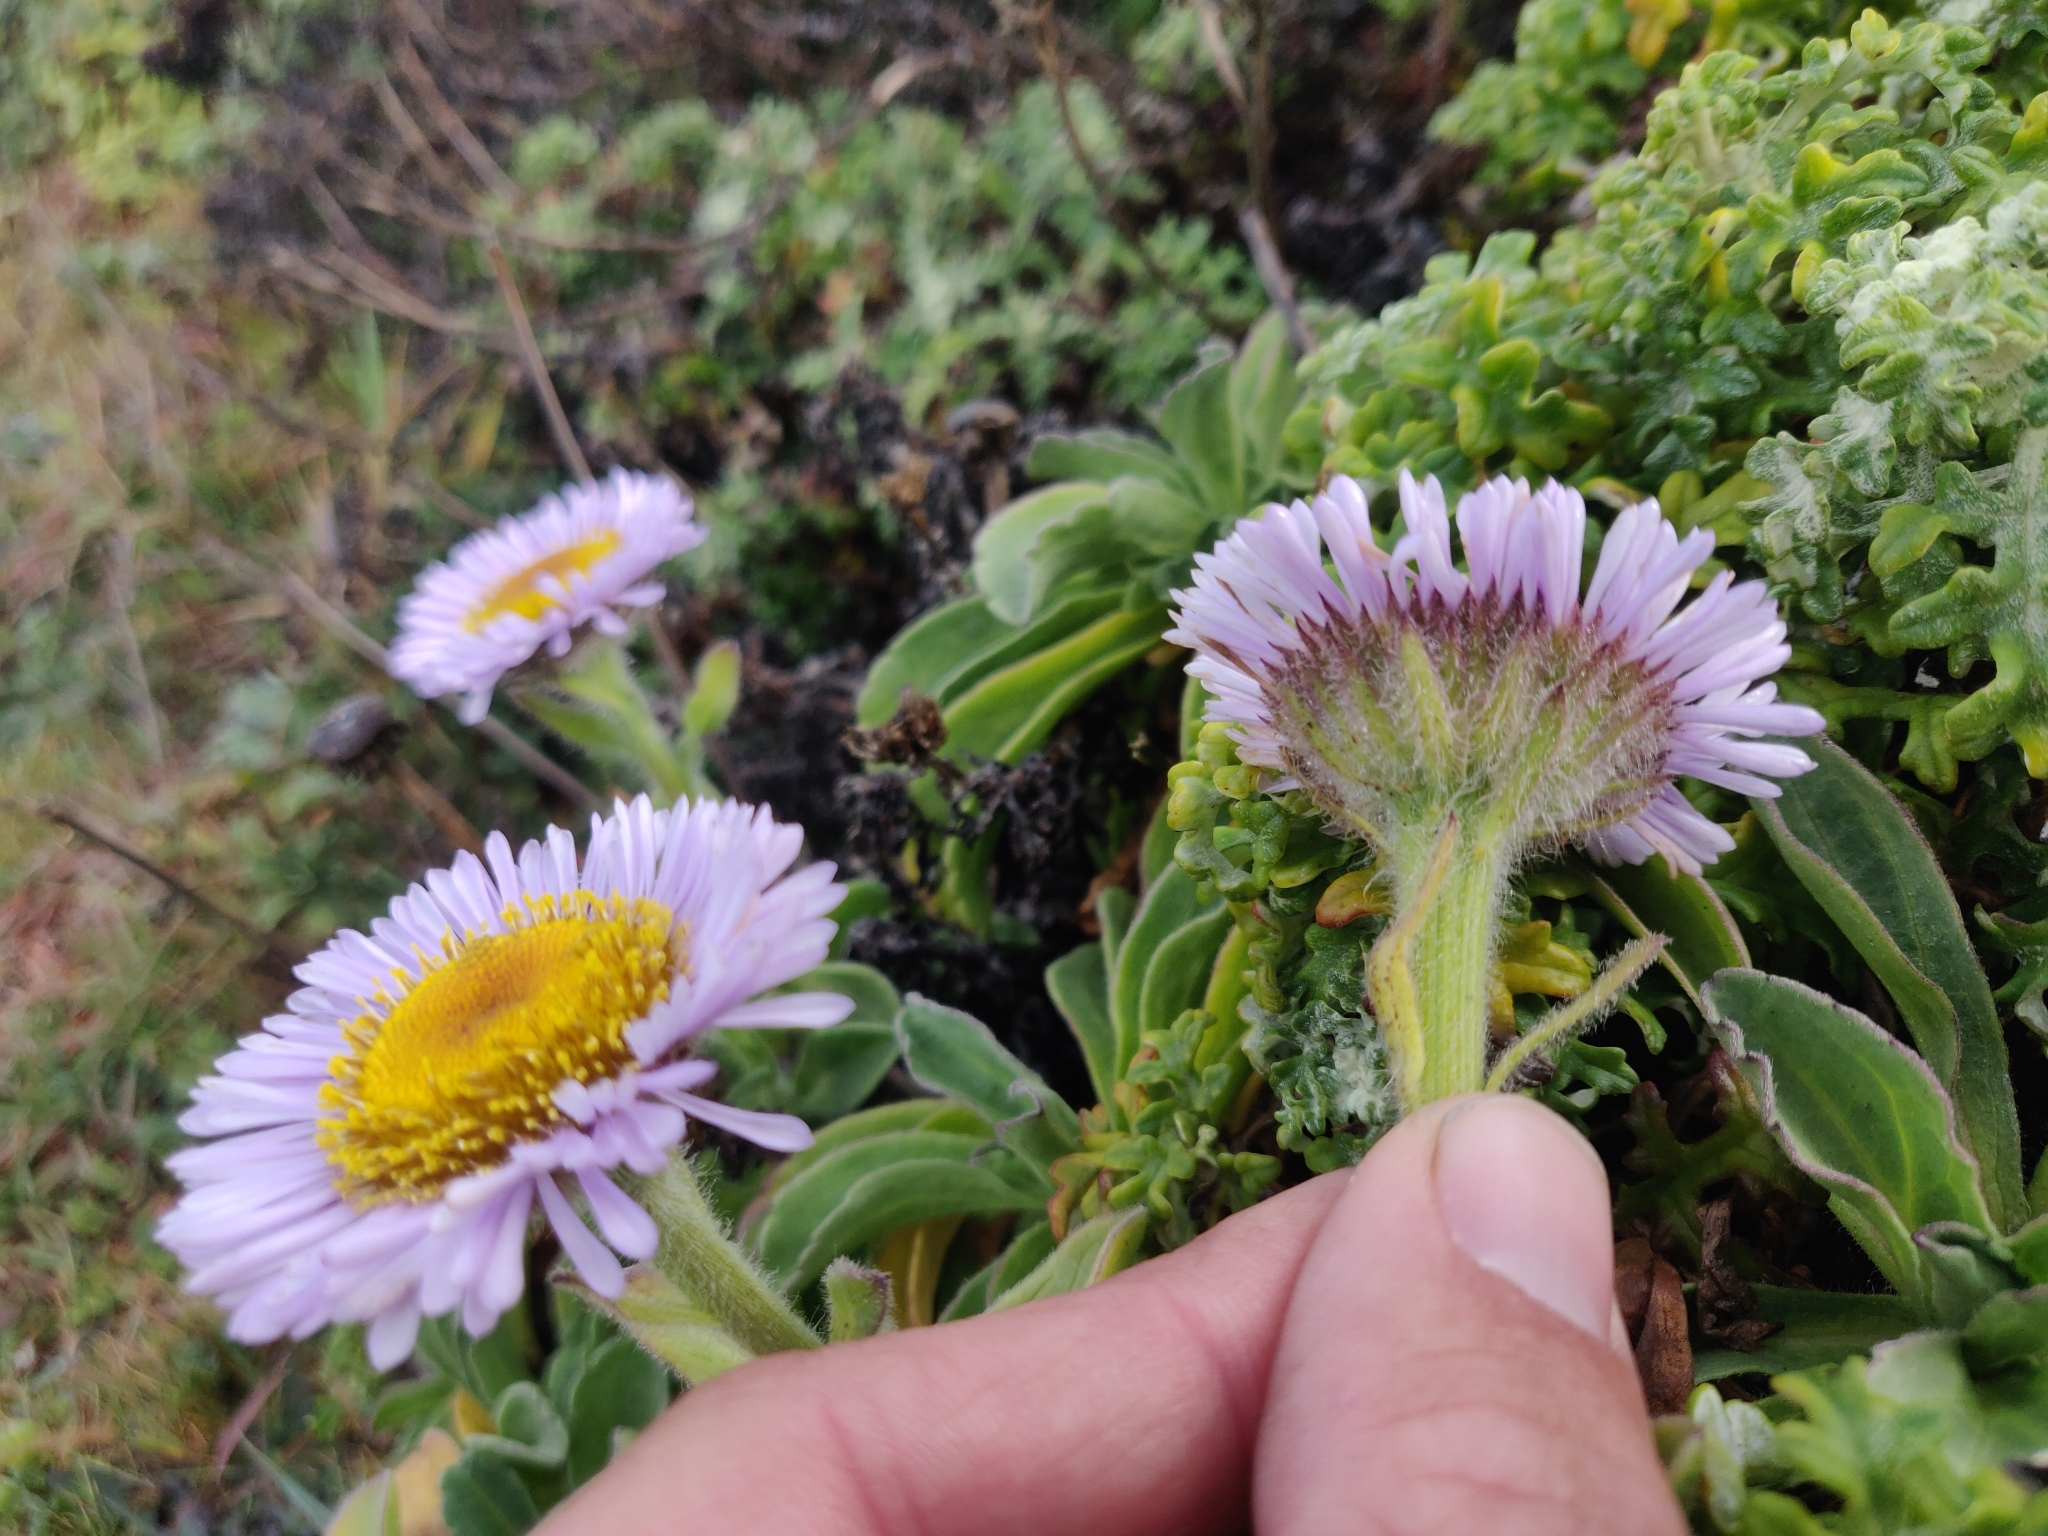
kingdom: Plantae
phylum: Tracheophyta
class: Magnoliopsida
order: Asterales
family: Asteraceae
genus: Erigeron
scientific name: Erigeron glaucus
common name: Seaside daisy
